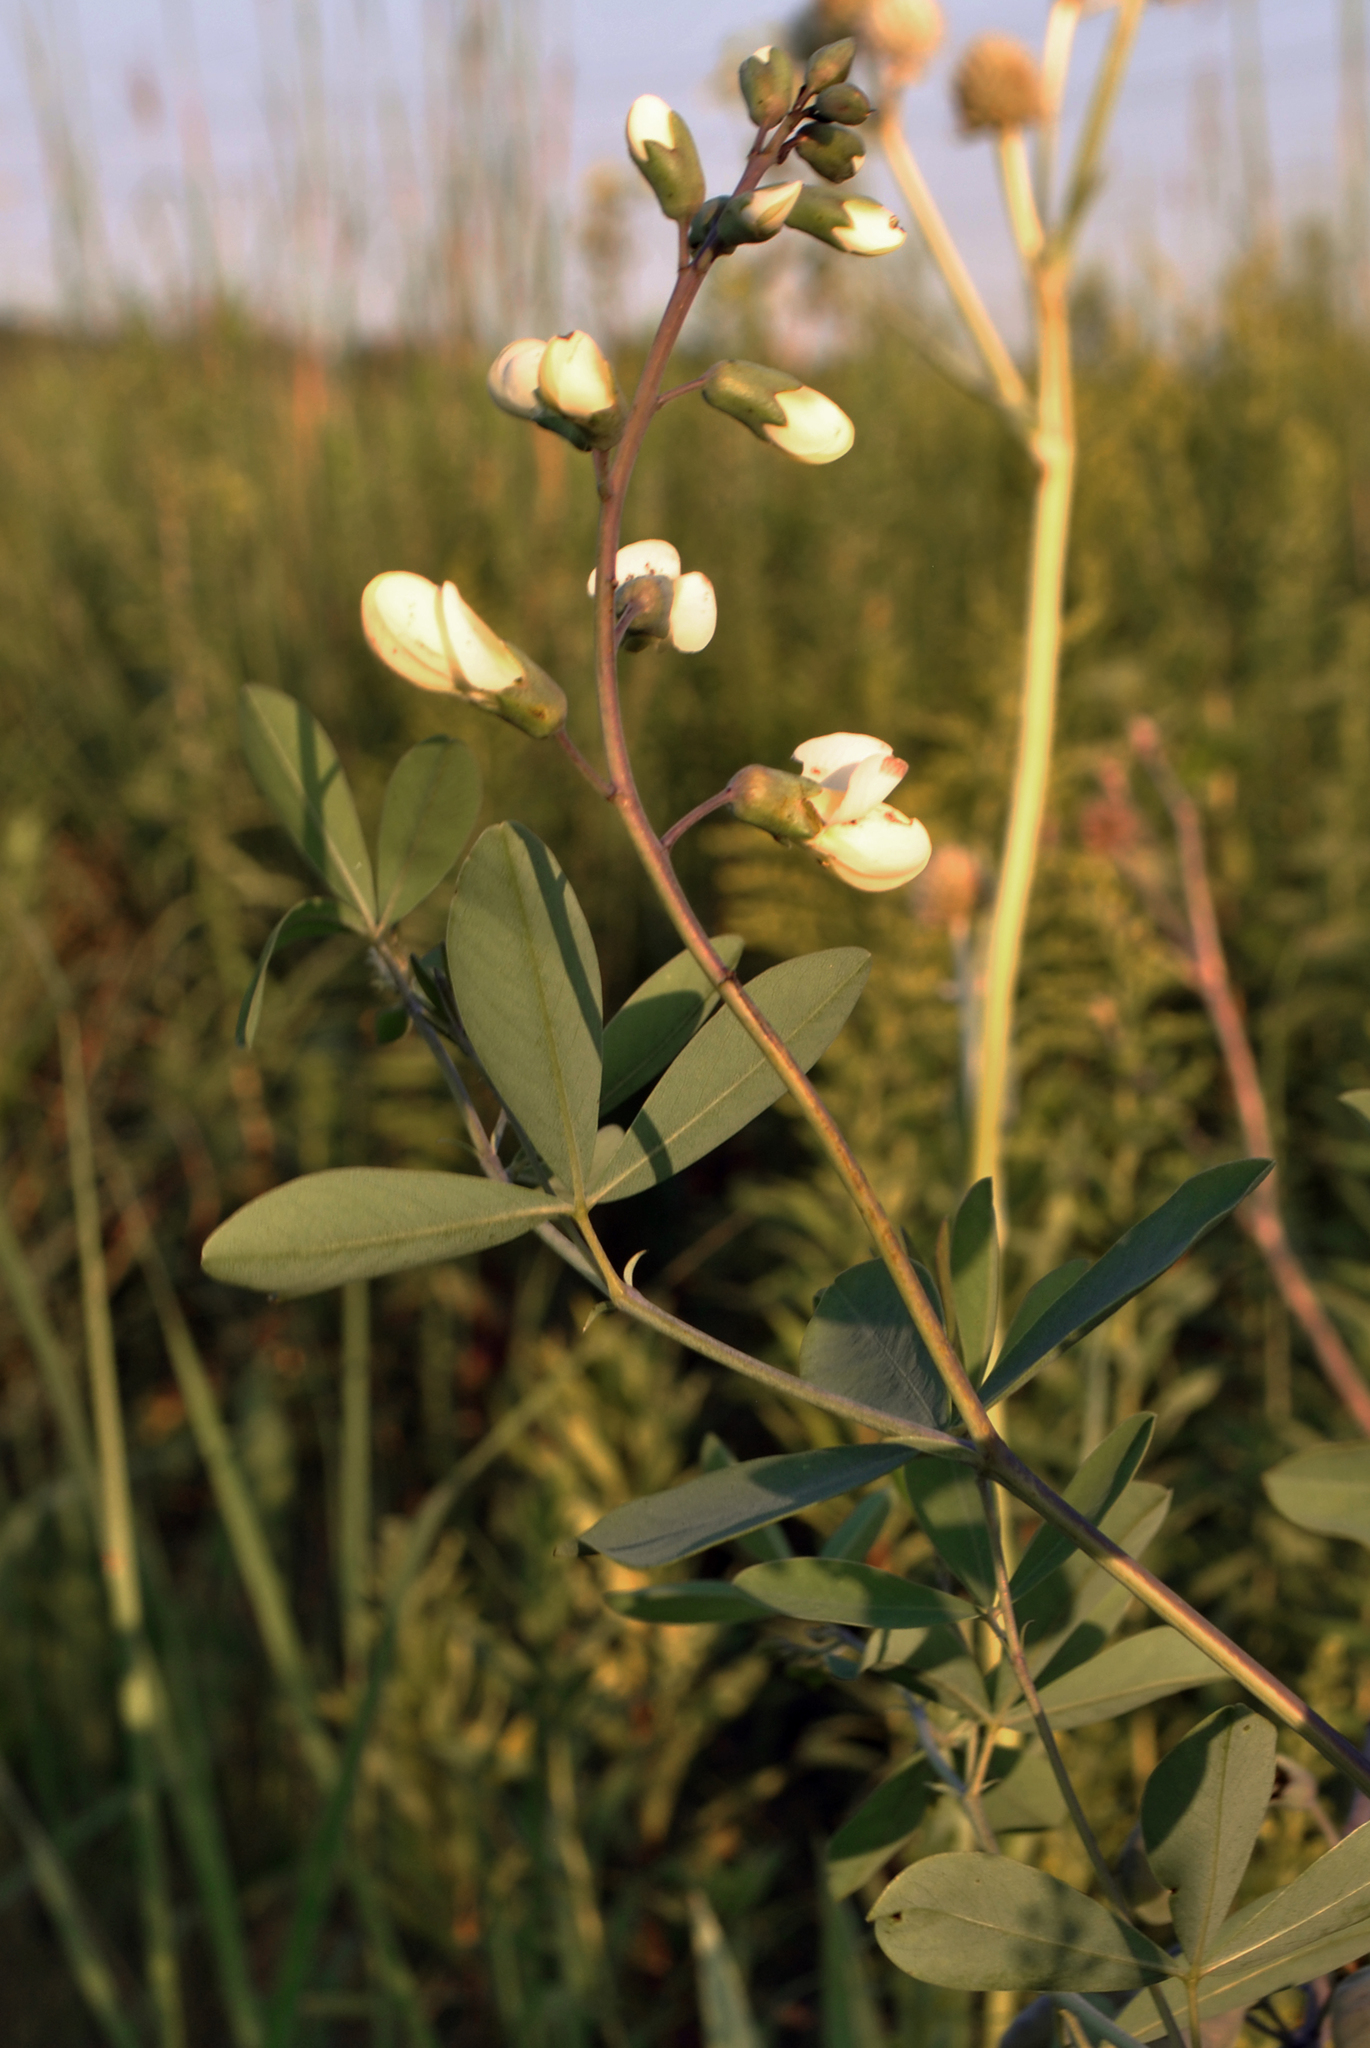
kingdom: Plantae
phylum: Tracheophyta
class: Magnoliopsida
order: Fabales
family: Fabaceae
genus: Baptisia
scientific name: Baptisia alba
